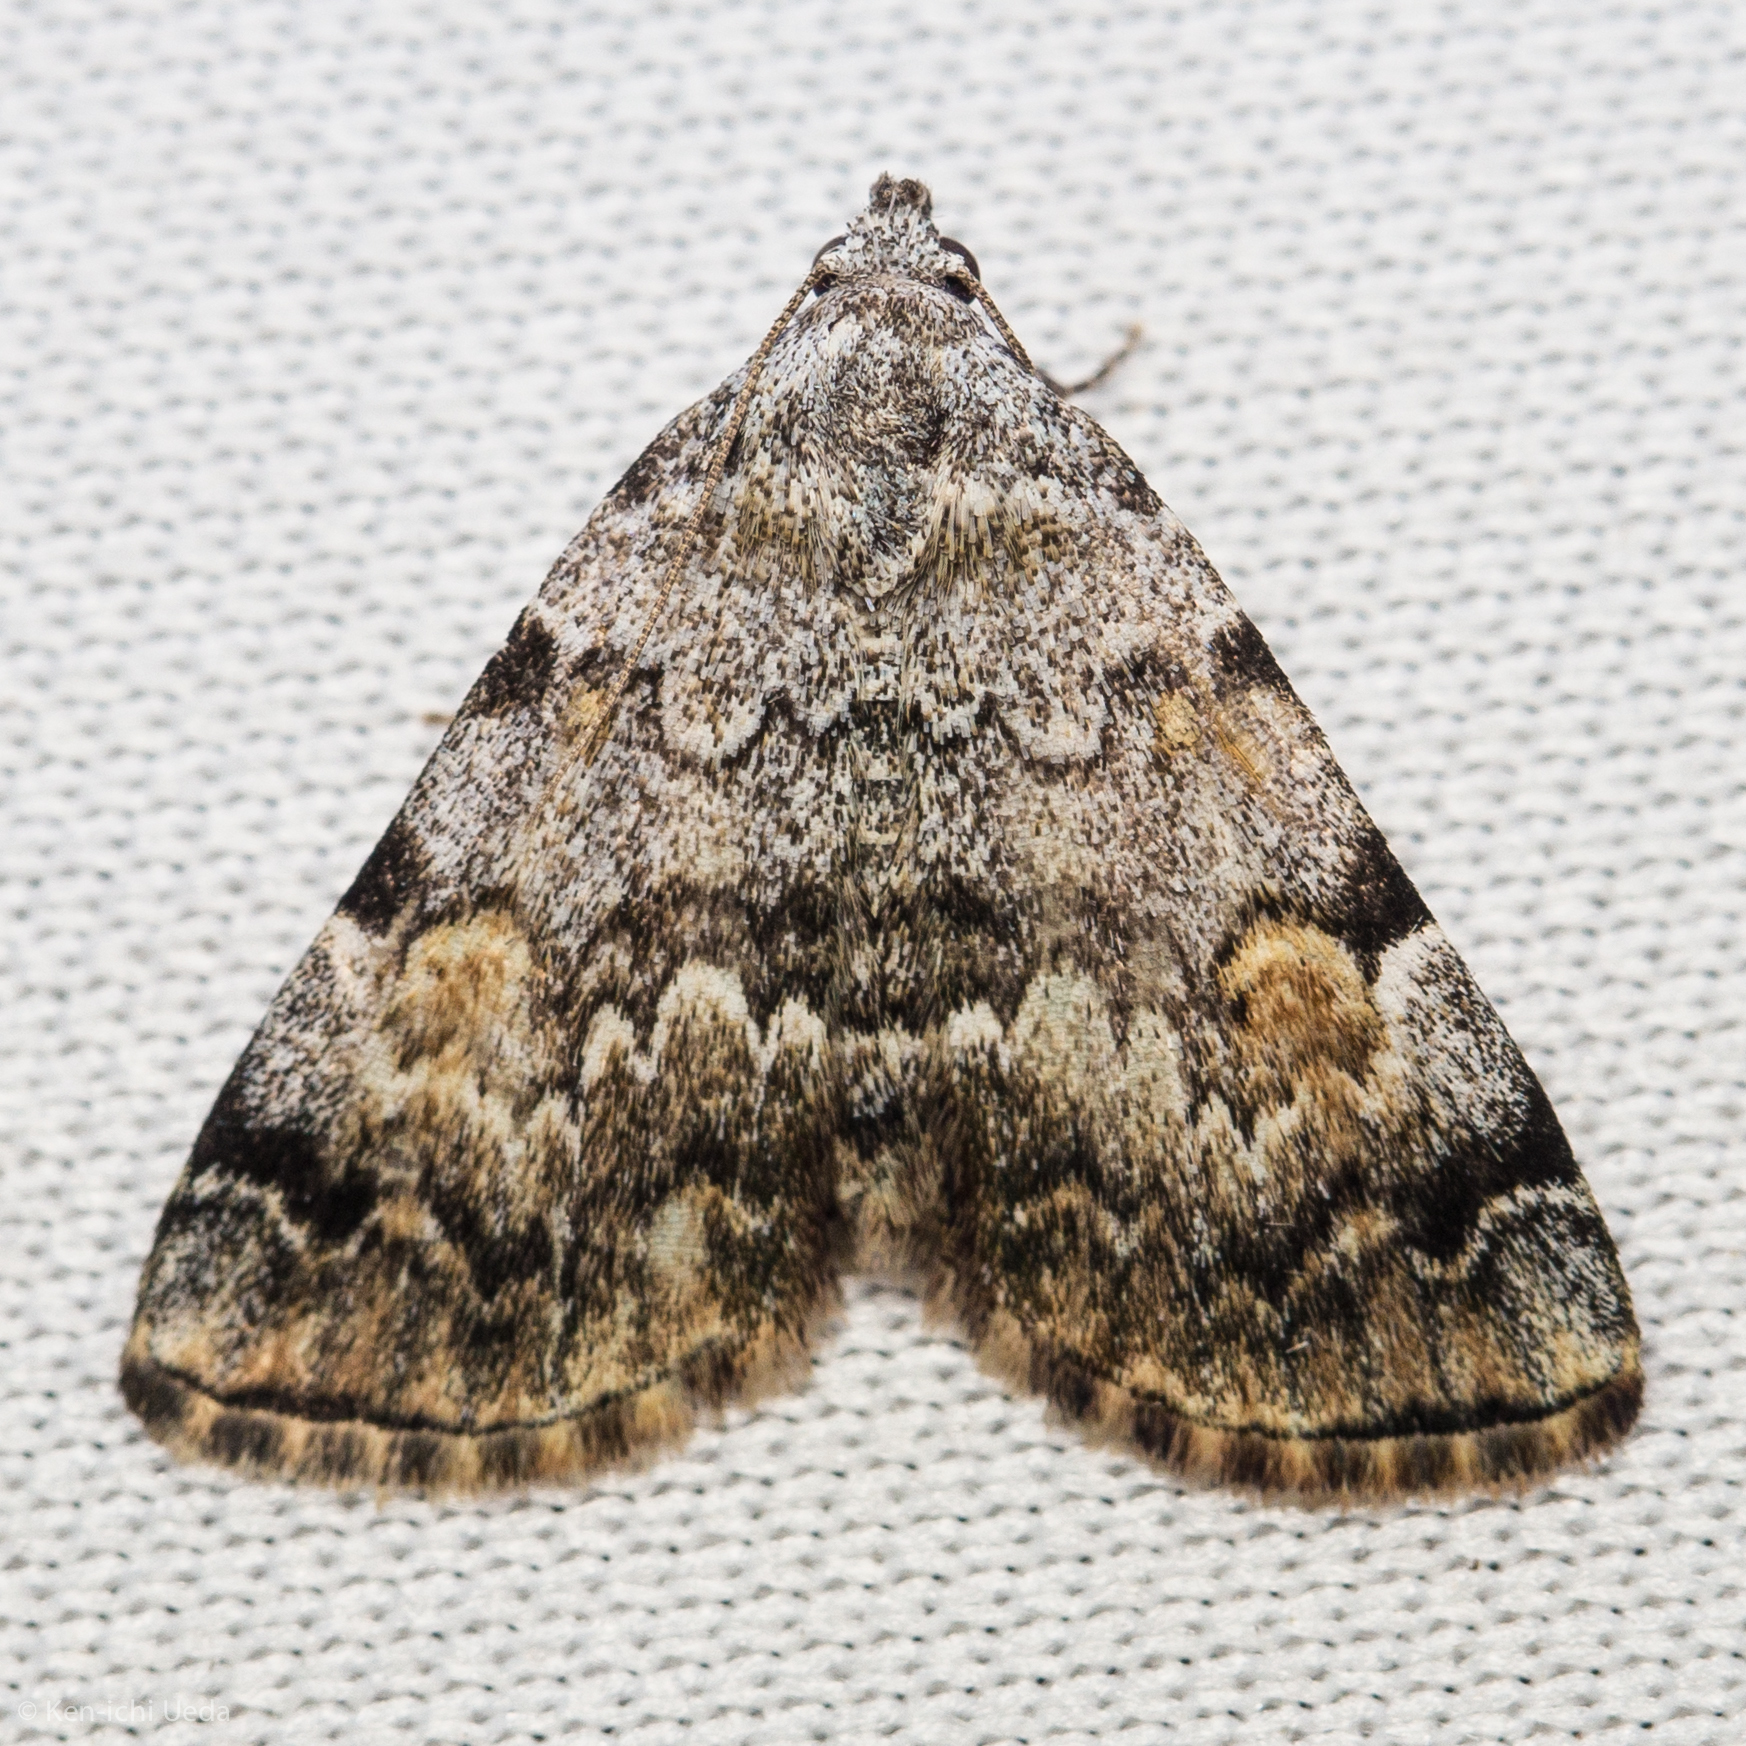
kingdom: Animalia
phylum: Arthropoda
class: Insecta
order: Lepidoptera
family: Erebidae
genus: Idia
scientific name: Idia americalis
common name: American idia moth
